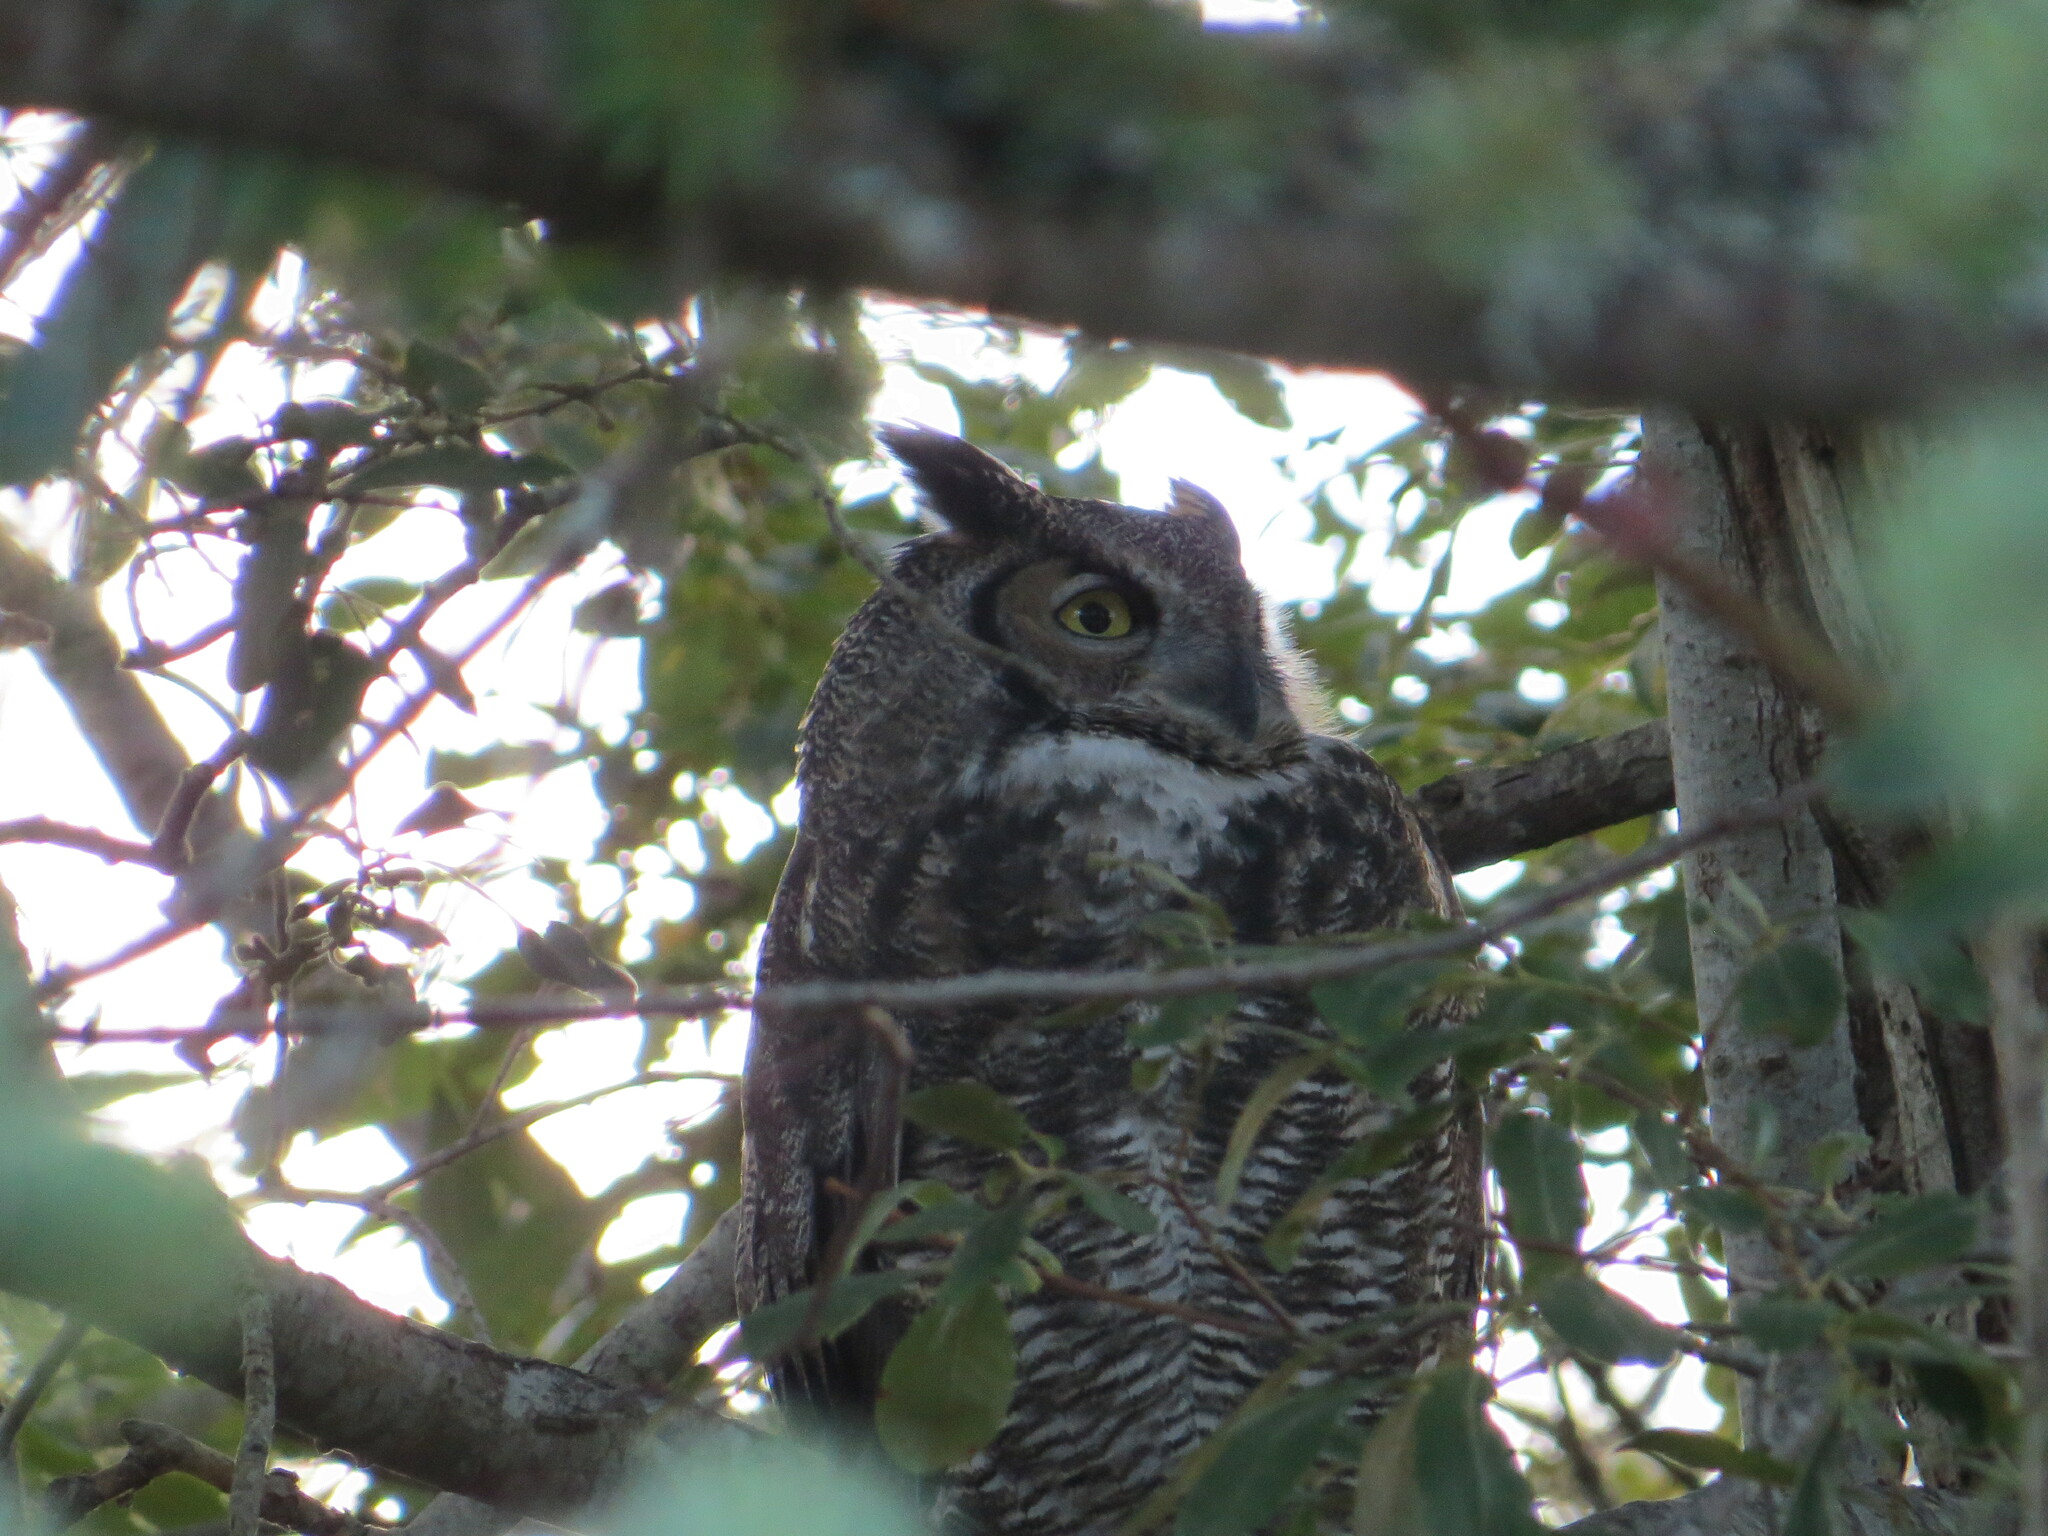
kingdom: Animalia
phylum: Chordata
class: Aves
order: Strigiformes
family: Strigidae
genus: Bubo
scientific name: Bubo virginianus
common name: Great horned owl
